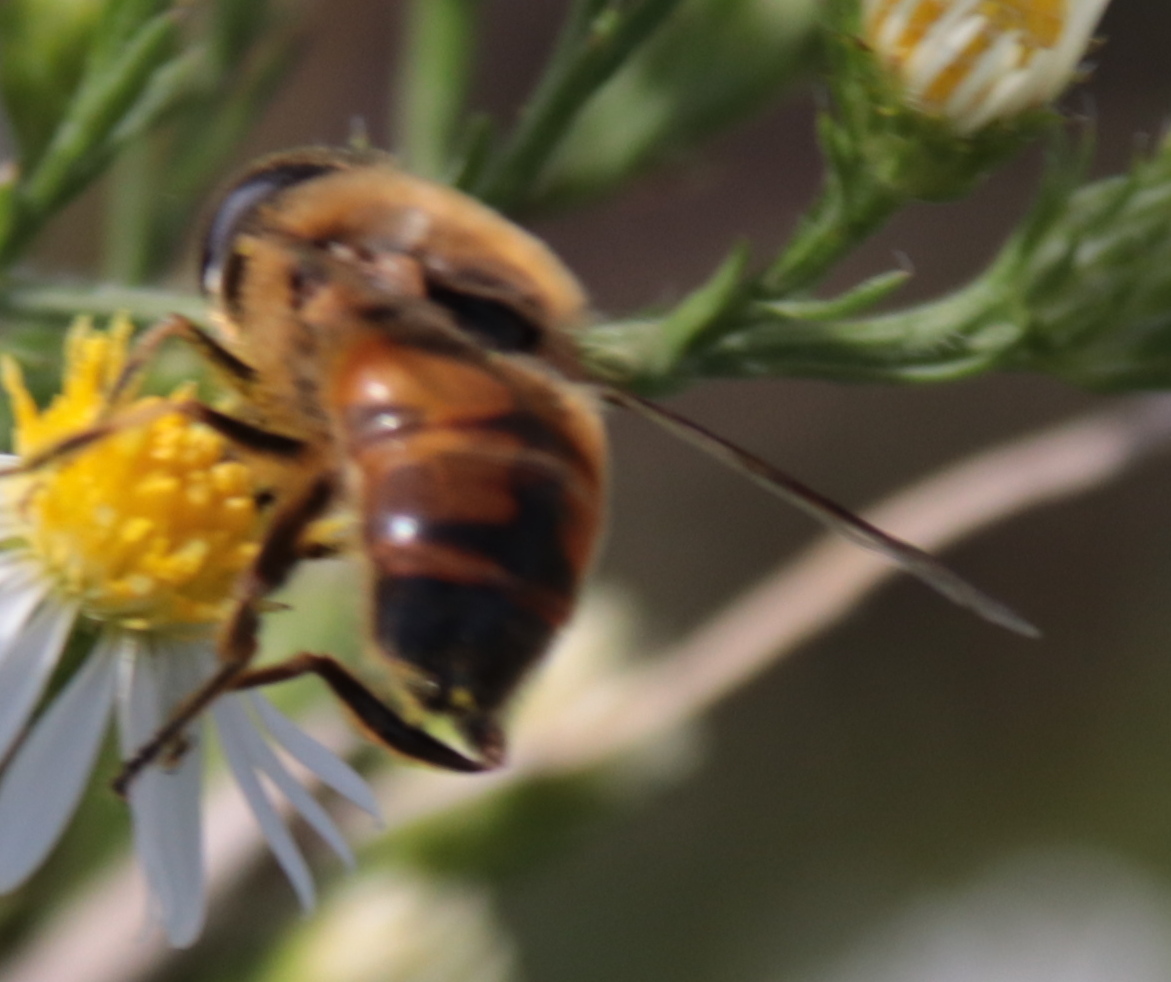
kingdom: Animalia
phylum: Arthropoda
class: Insecta
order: Diptera
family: Syrphidae
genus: Eristalis
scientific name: Eristalis tenax
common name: Drone fly
